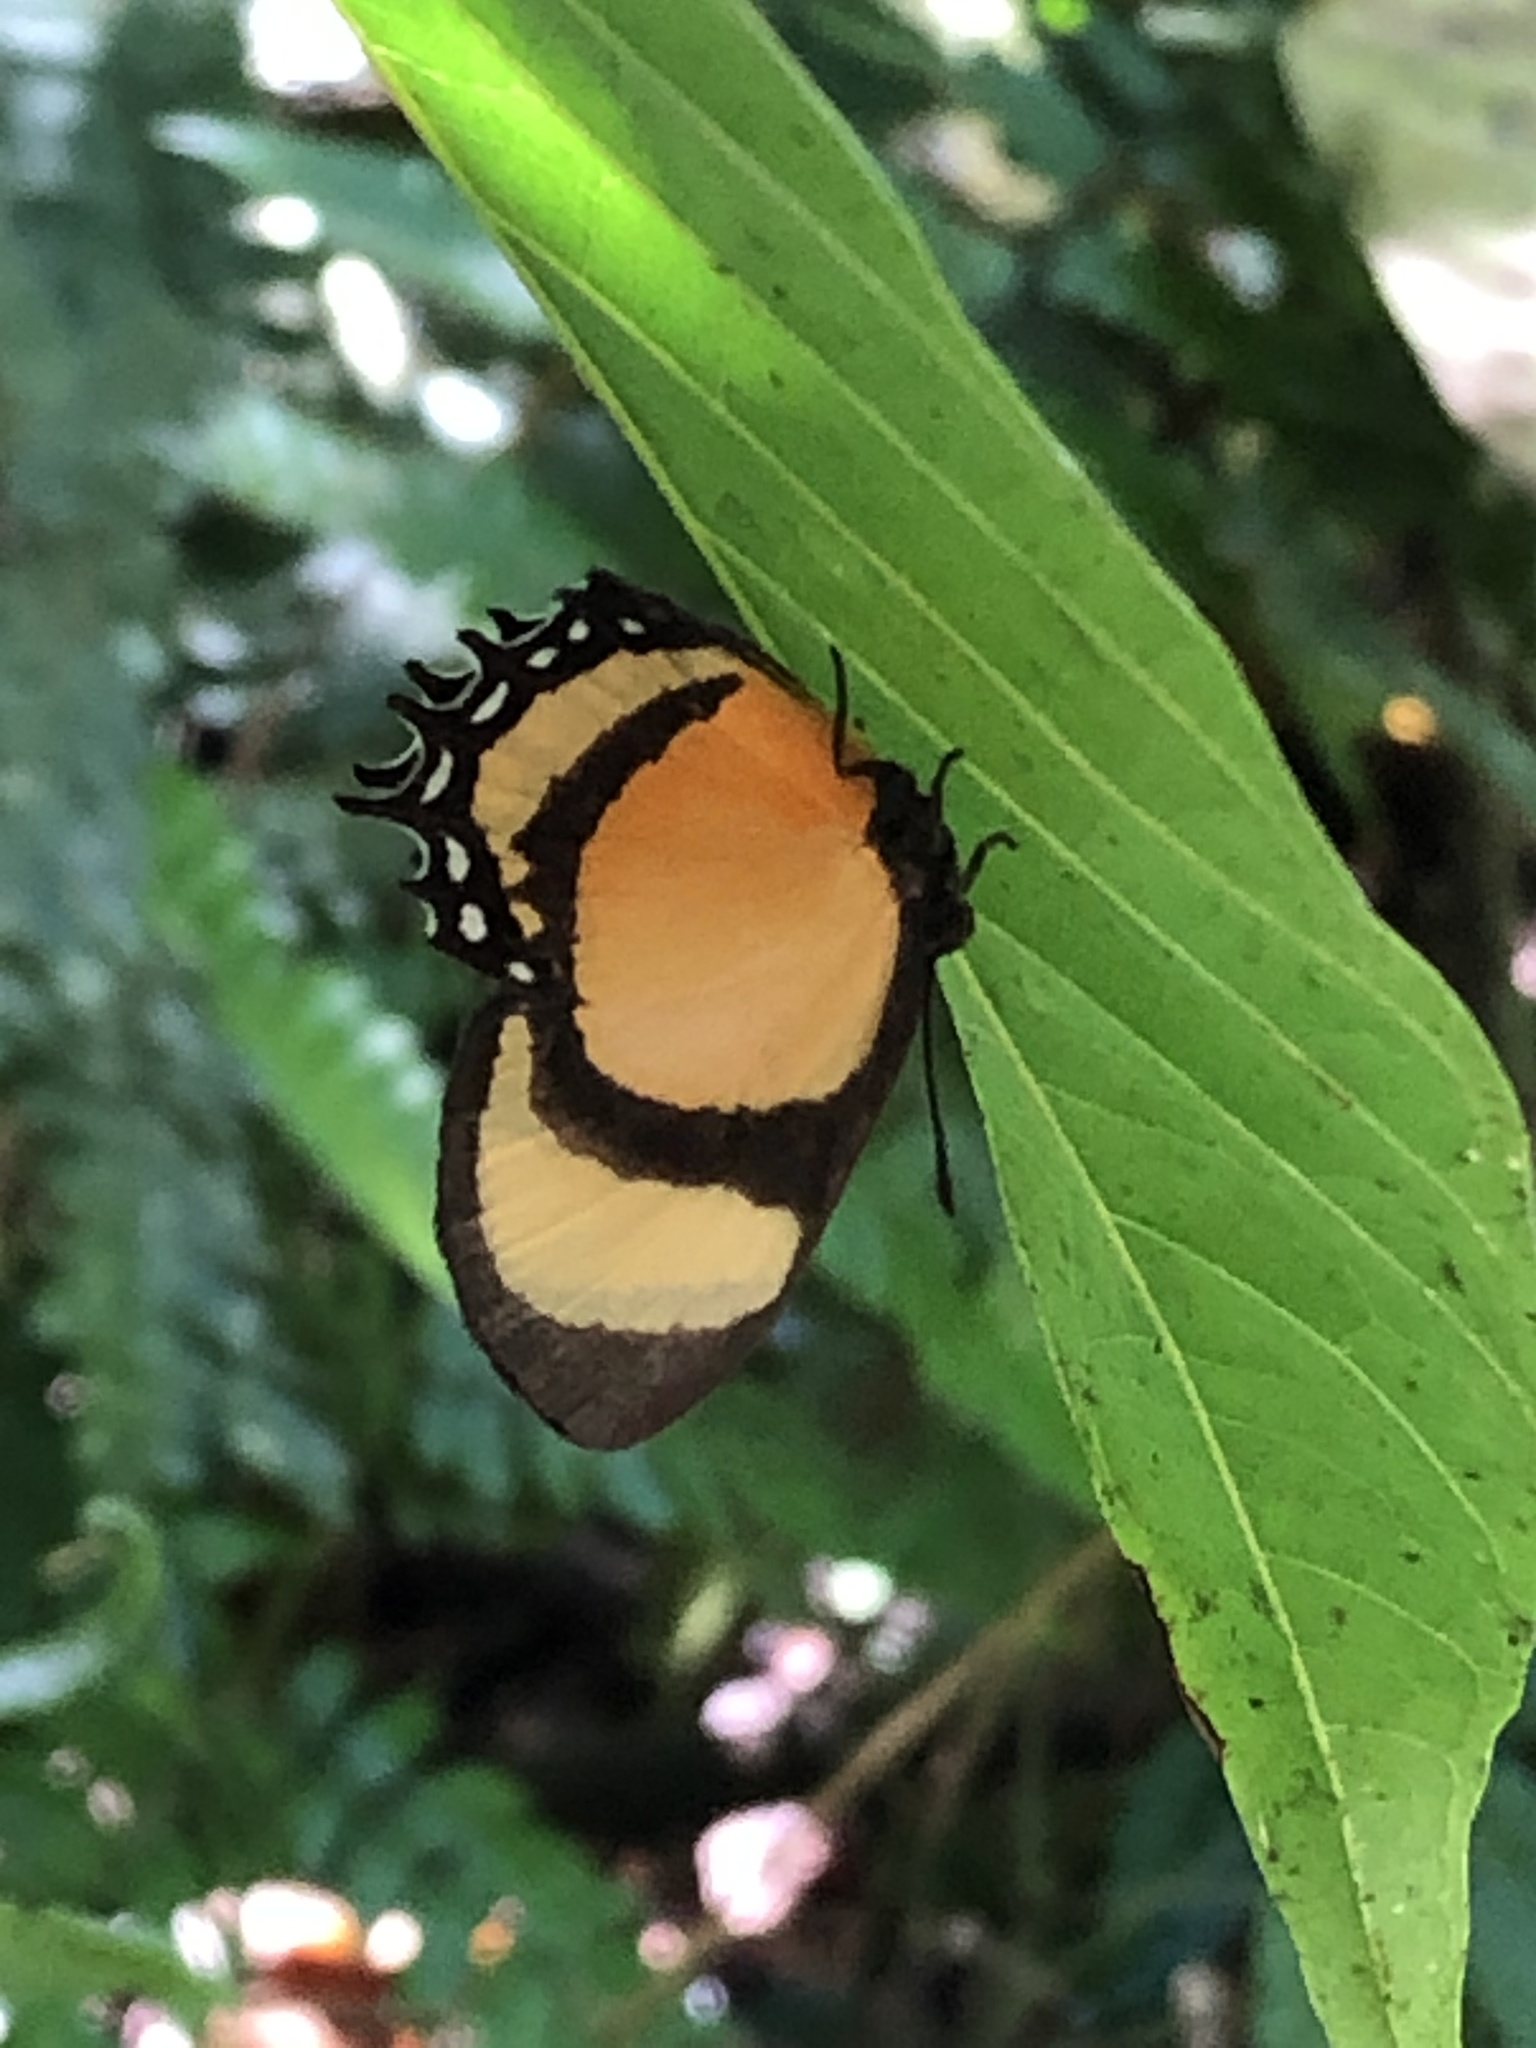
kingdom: Animalia
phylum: Arthropoda
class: Insecta
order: Lepidoptera
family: Riodinidae
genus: Methone
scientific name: Methone cecilia
